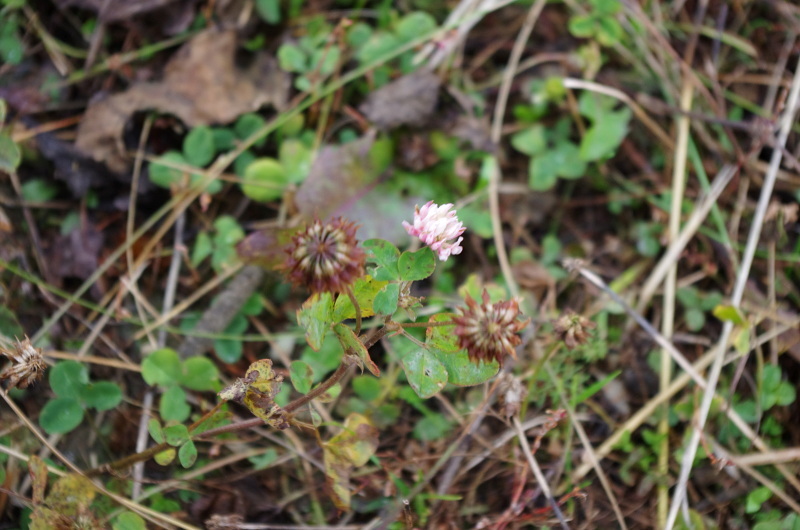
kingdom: Plantae
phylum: Tracheophyta
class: Magnoliopsida
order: Fabales
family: Fabaceae
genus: Trifolium
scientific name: Trifolium hybridum
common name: Alsike clover
